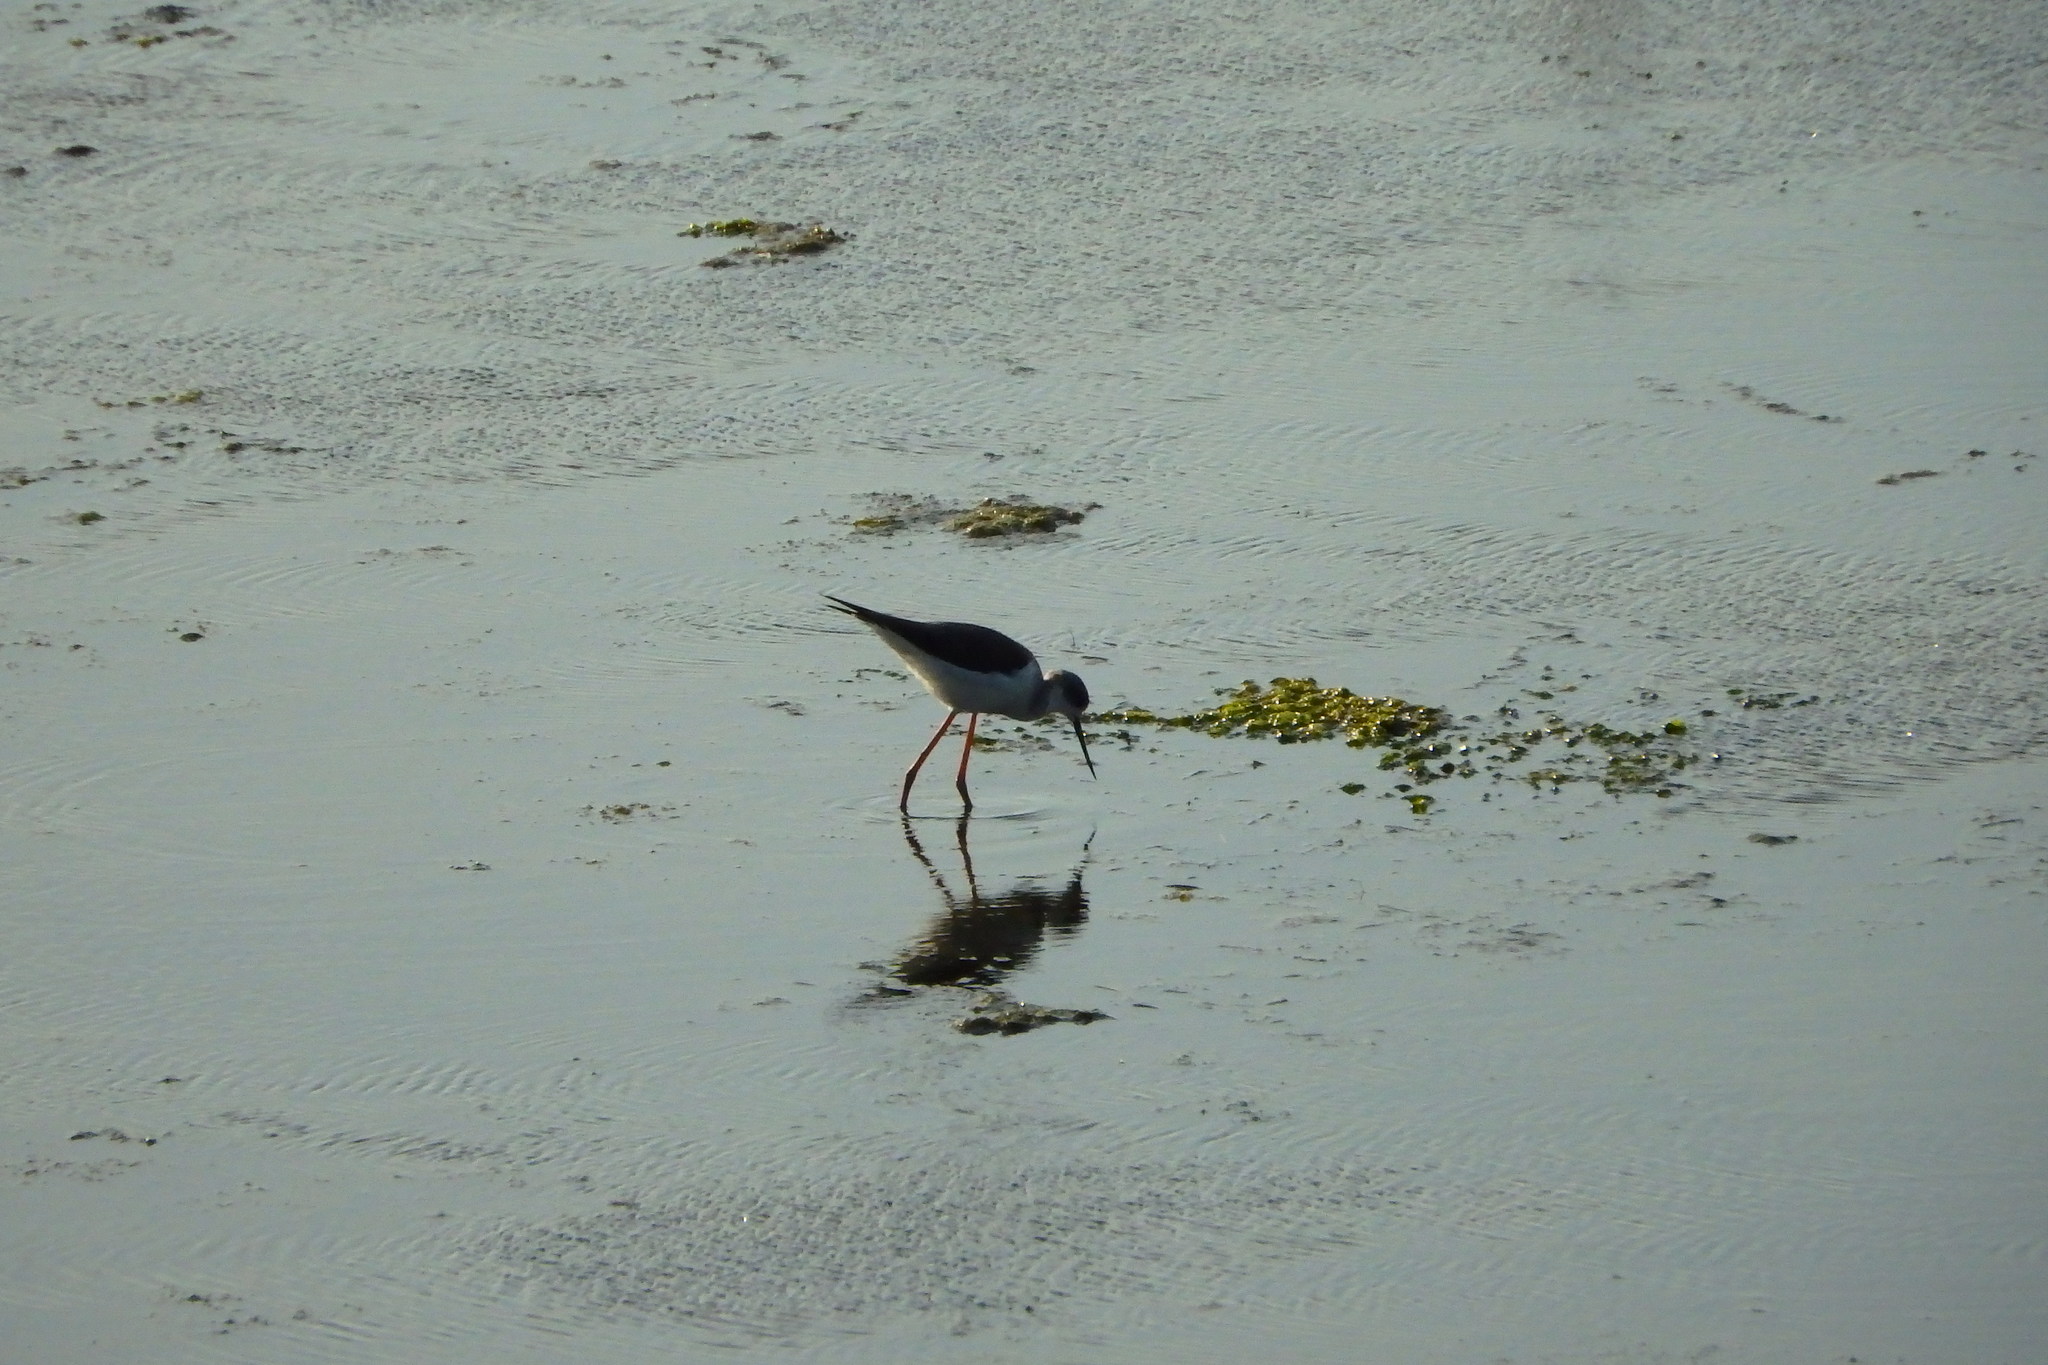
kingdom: Animalia
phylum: Chordata
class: Aves
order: Charadriiformes
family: Recurvirostridae
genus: Himantopus
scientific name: Himantopus himantopus
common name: Black-winged stilt
